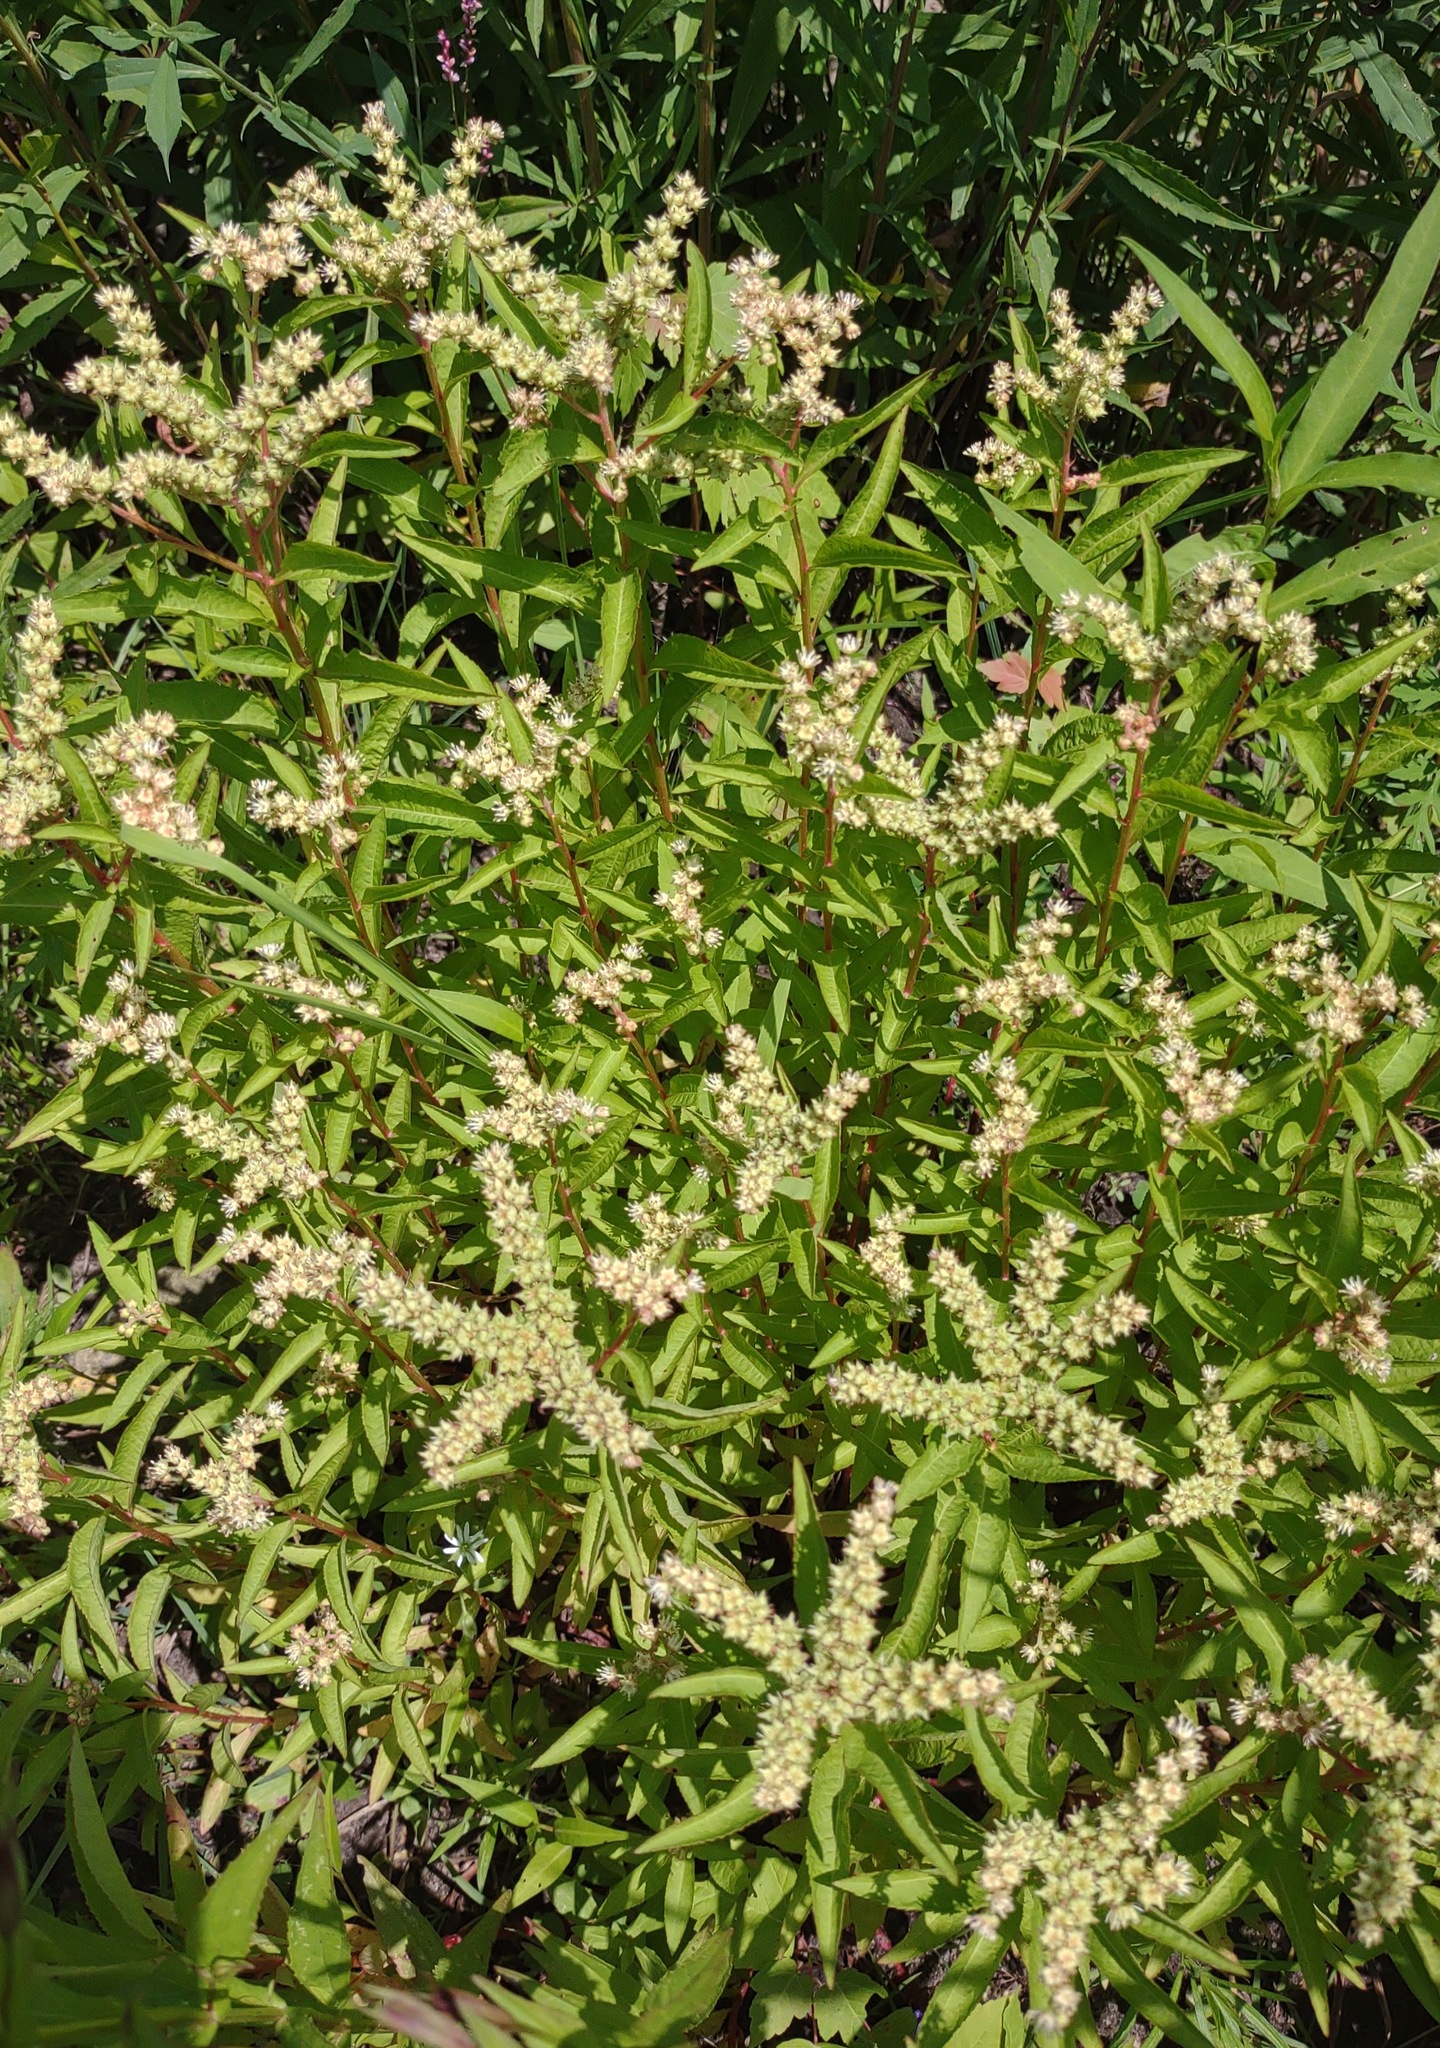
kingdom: Plantae
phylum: Tracheophyta
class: Magnoliopsida
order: Saxifragales
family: Penthoraceae
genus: Penthorum
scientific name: Penthorum sedoides
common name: Ditch stonecrop
